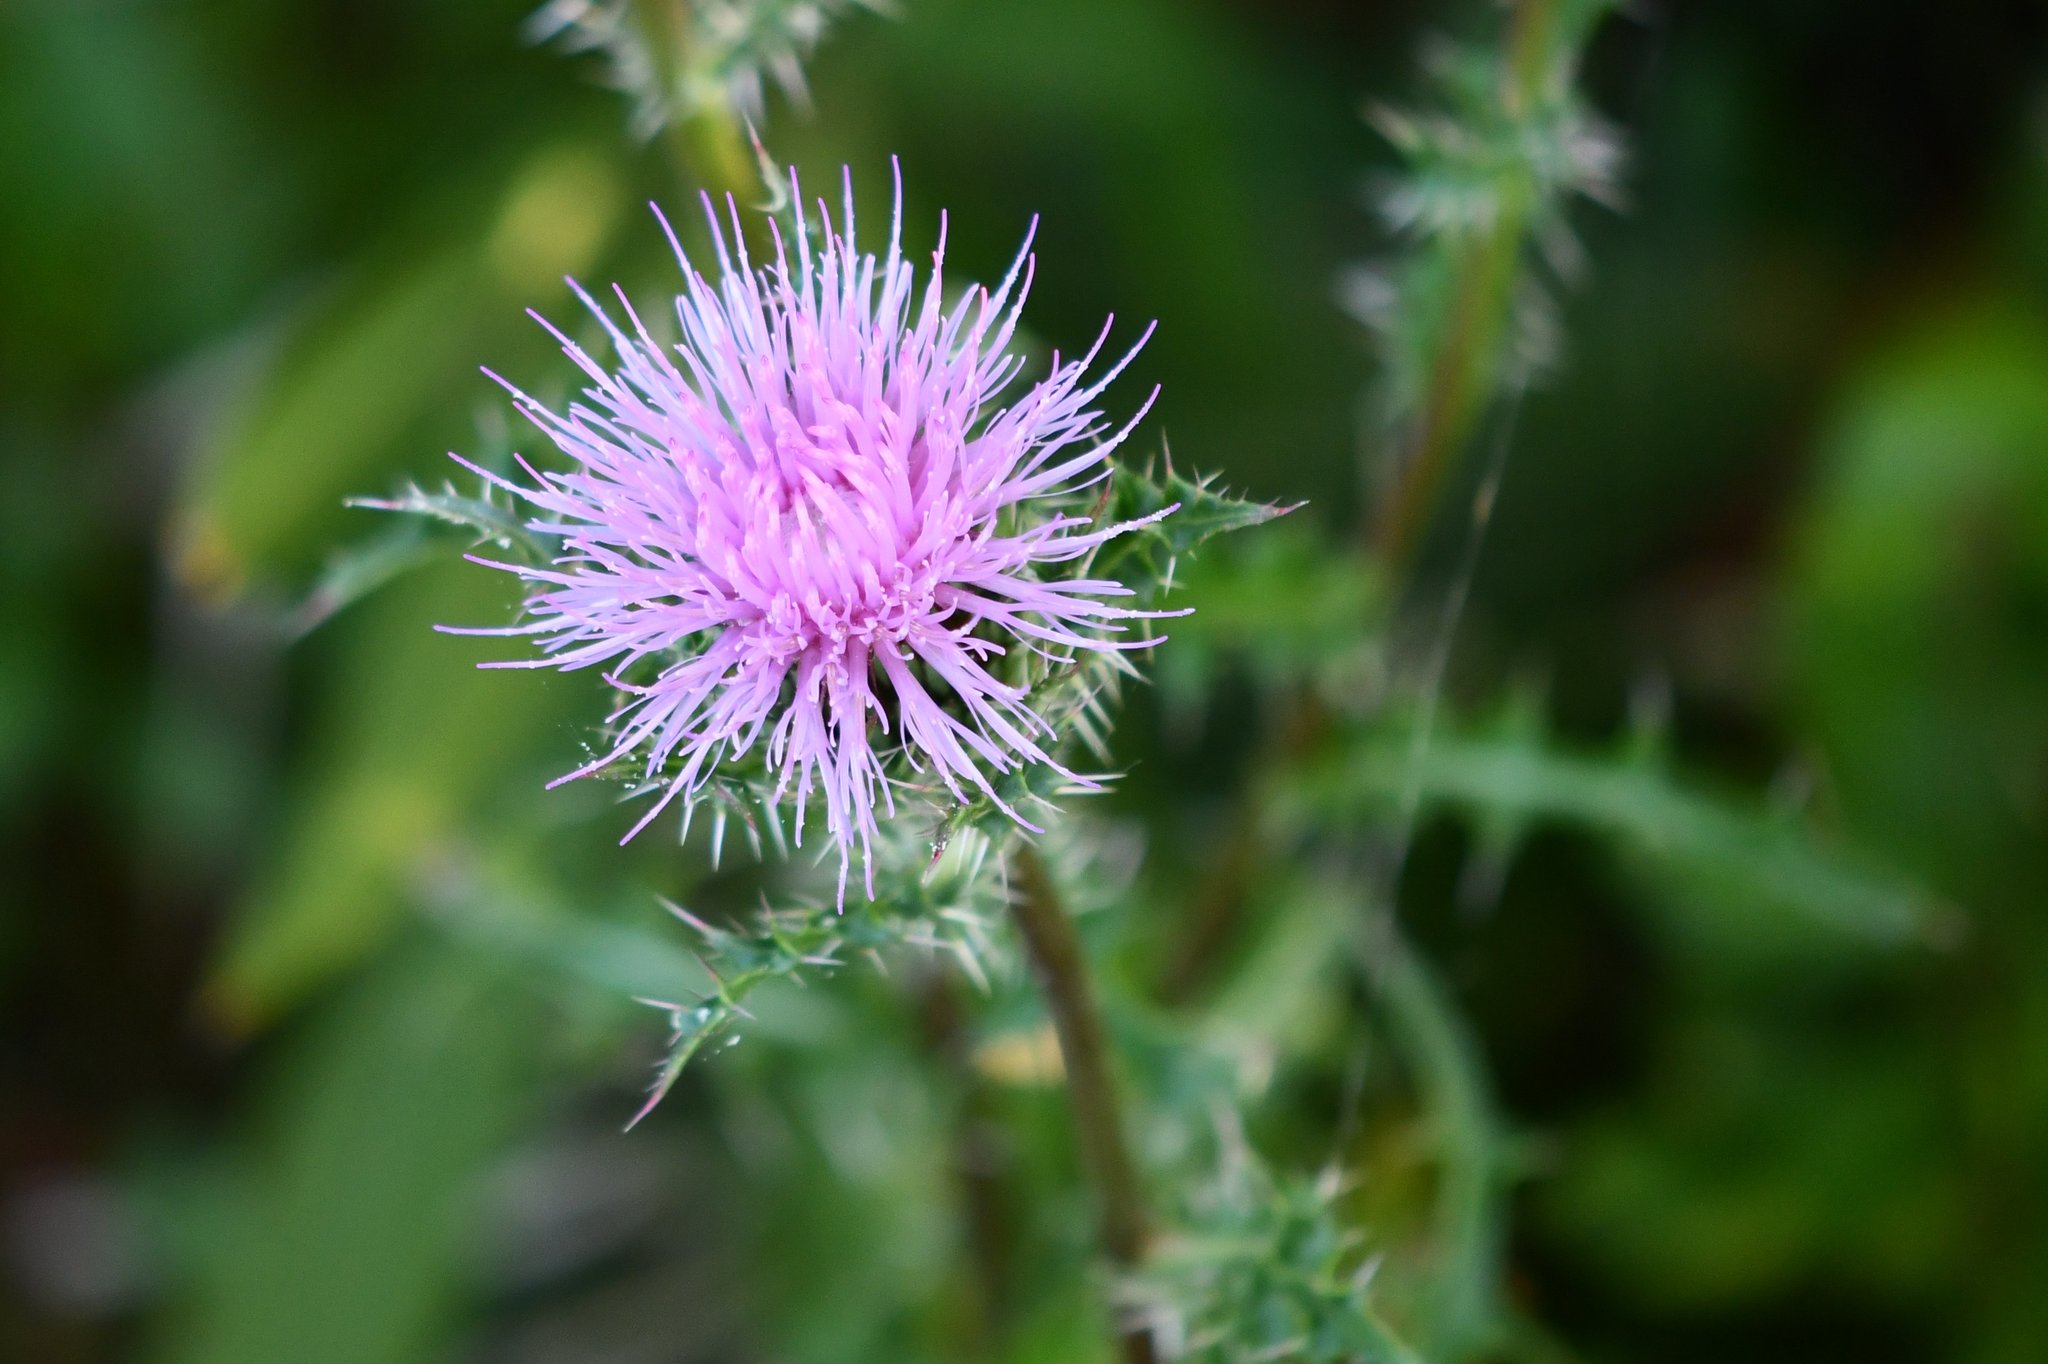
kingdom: Plantae
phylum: Tracheophyta
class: Magnoliopsida
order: Asterales
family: Asteraceae
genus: Cirsium
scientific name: Cirsium horridulum
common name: Bristly thistle
